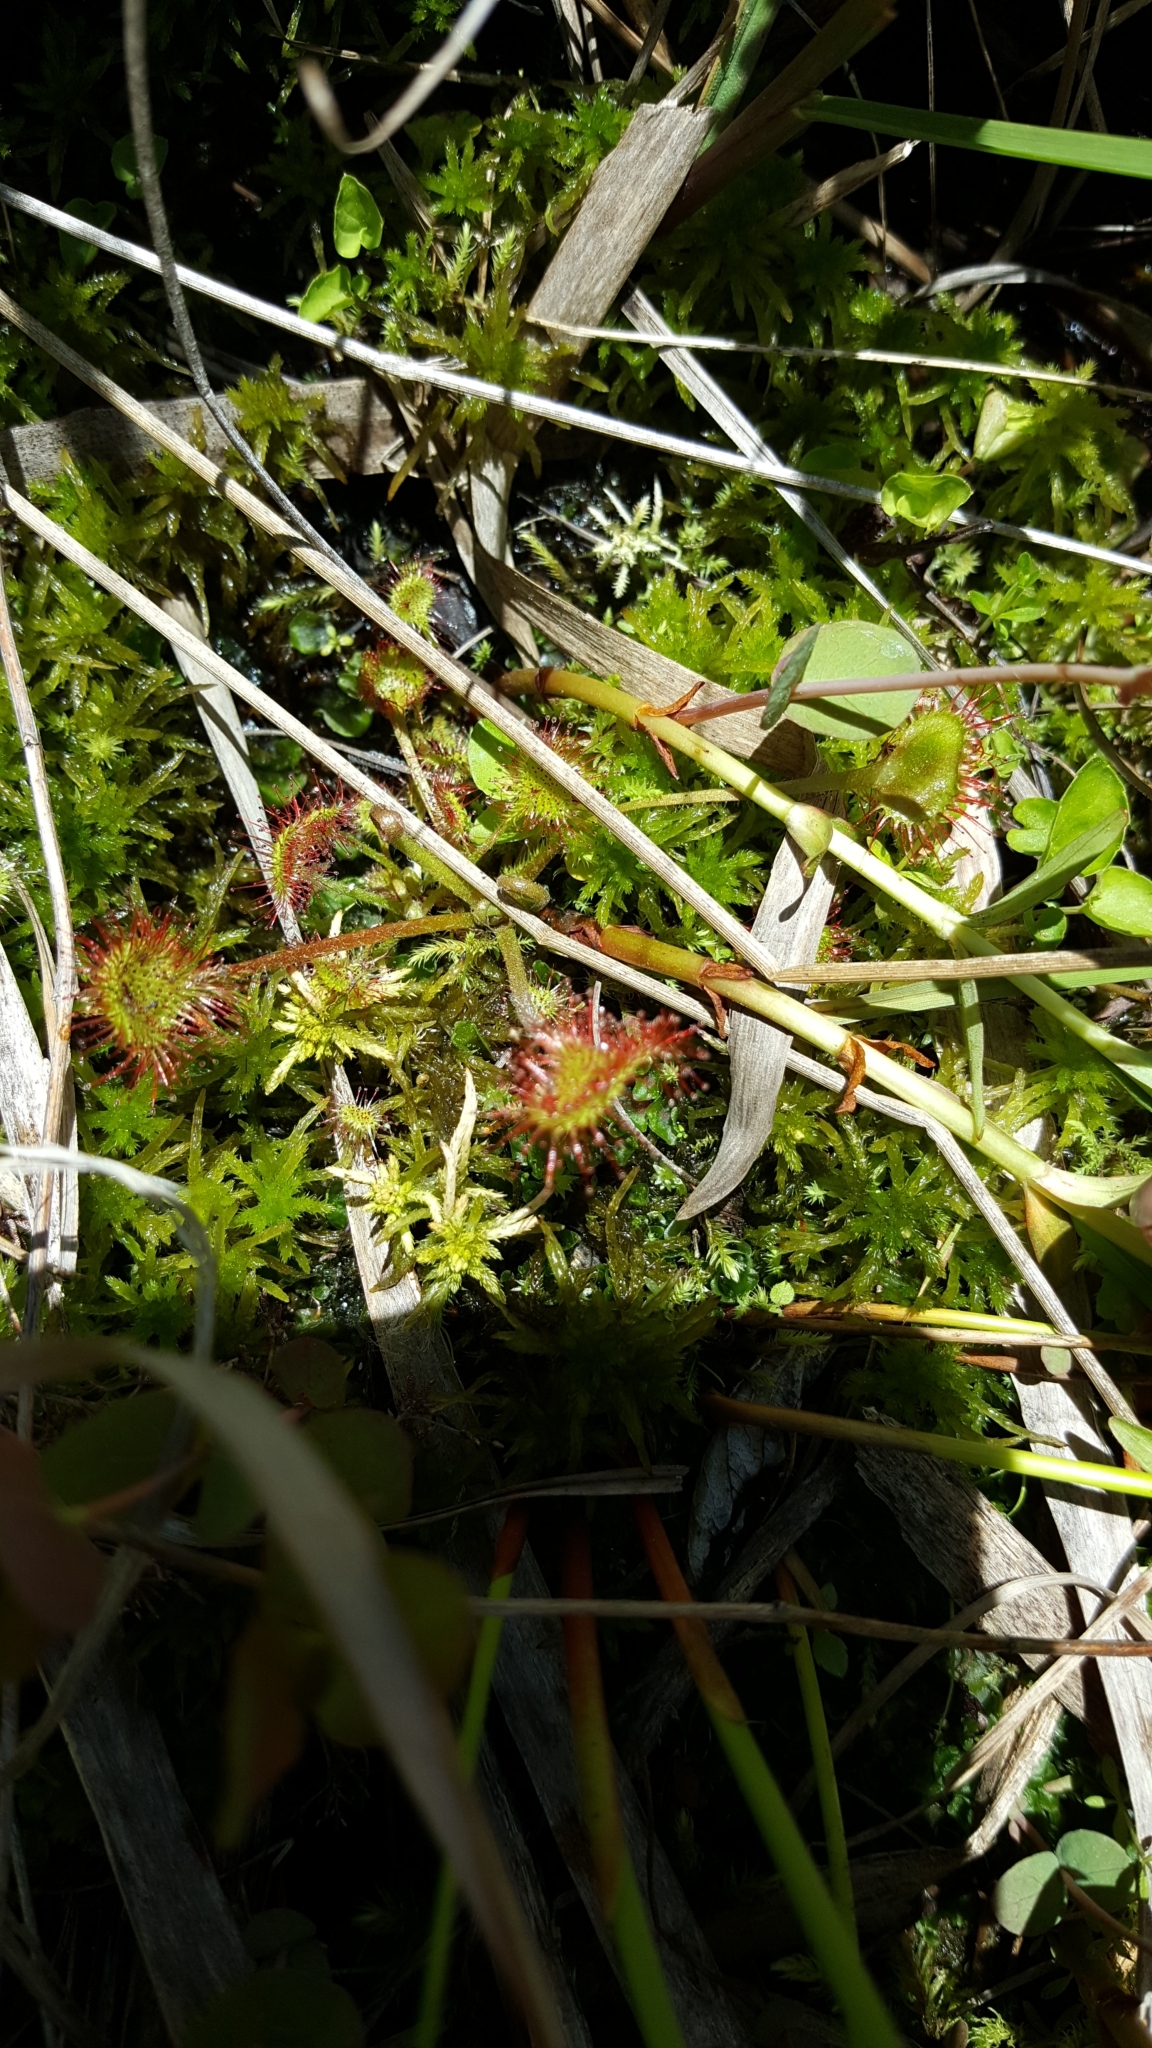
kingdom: Plantae
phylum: Tracheophyta
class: Magnoliopsida
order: Caryophyllales
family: Droseraceae
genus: Drosera
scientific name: Drosera rotundifolia
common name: Round-leaved sundew
